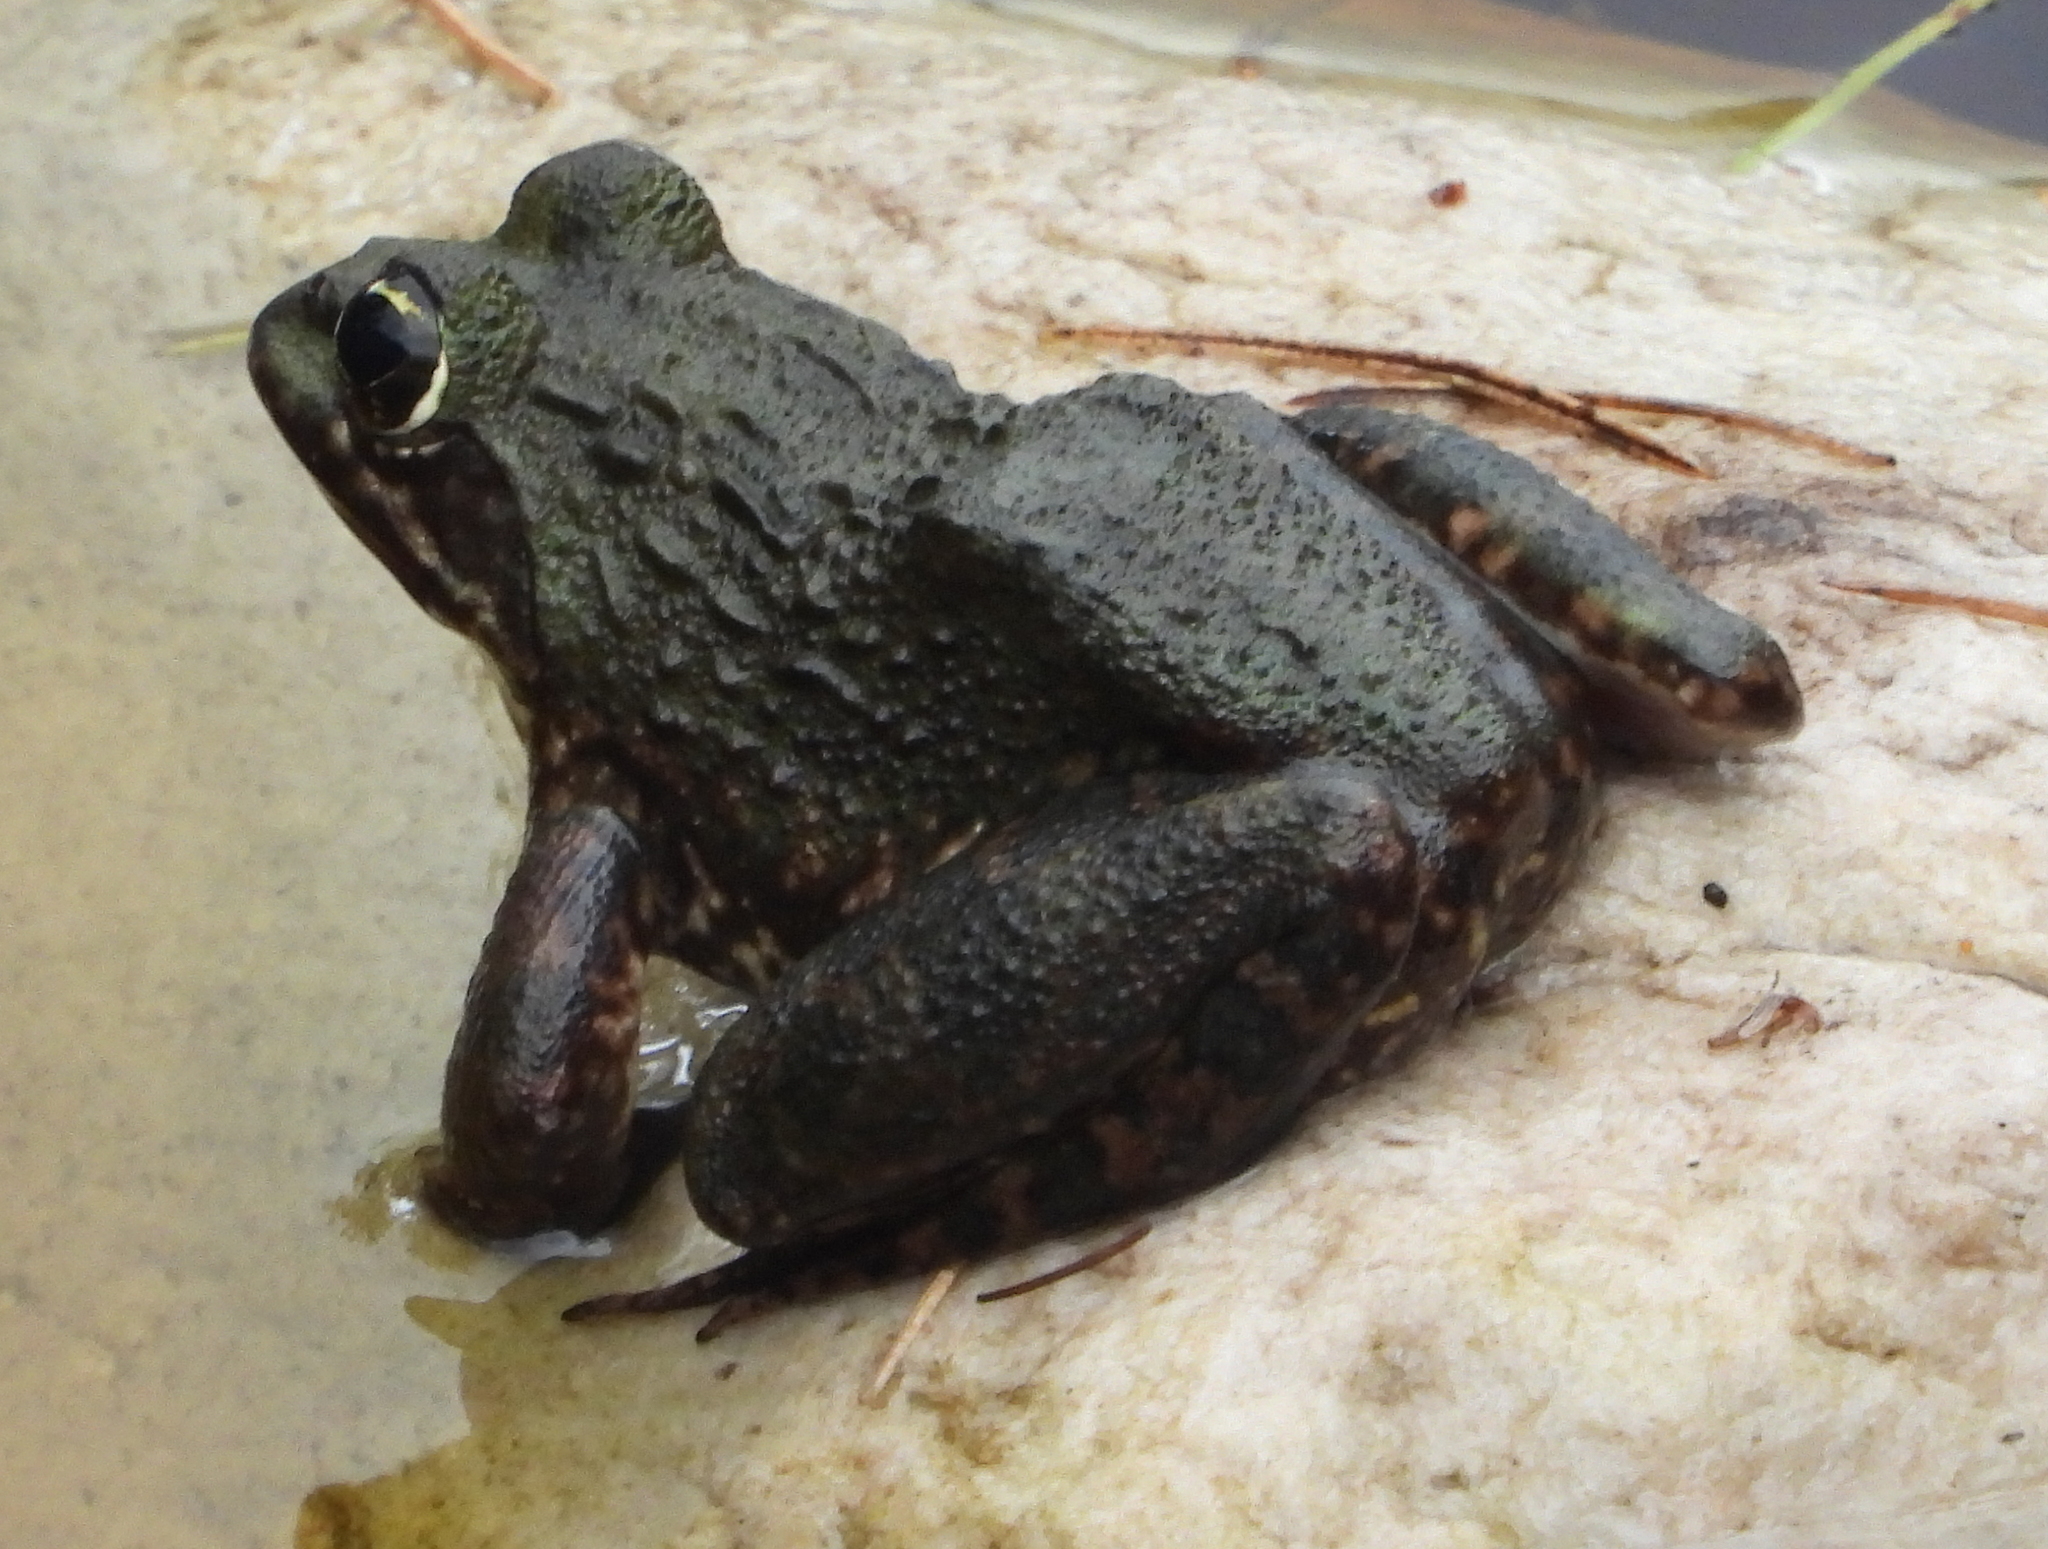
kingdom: Animalia
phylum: Chordata
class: Amphibia
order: Anura
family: Pyxicephalidae
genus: Amietia
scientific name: Amietia fuscigula
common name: Cape rana
